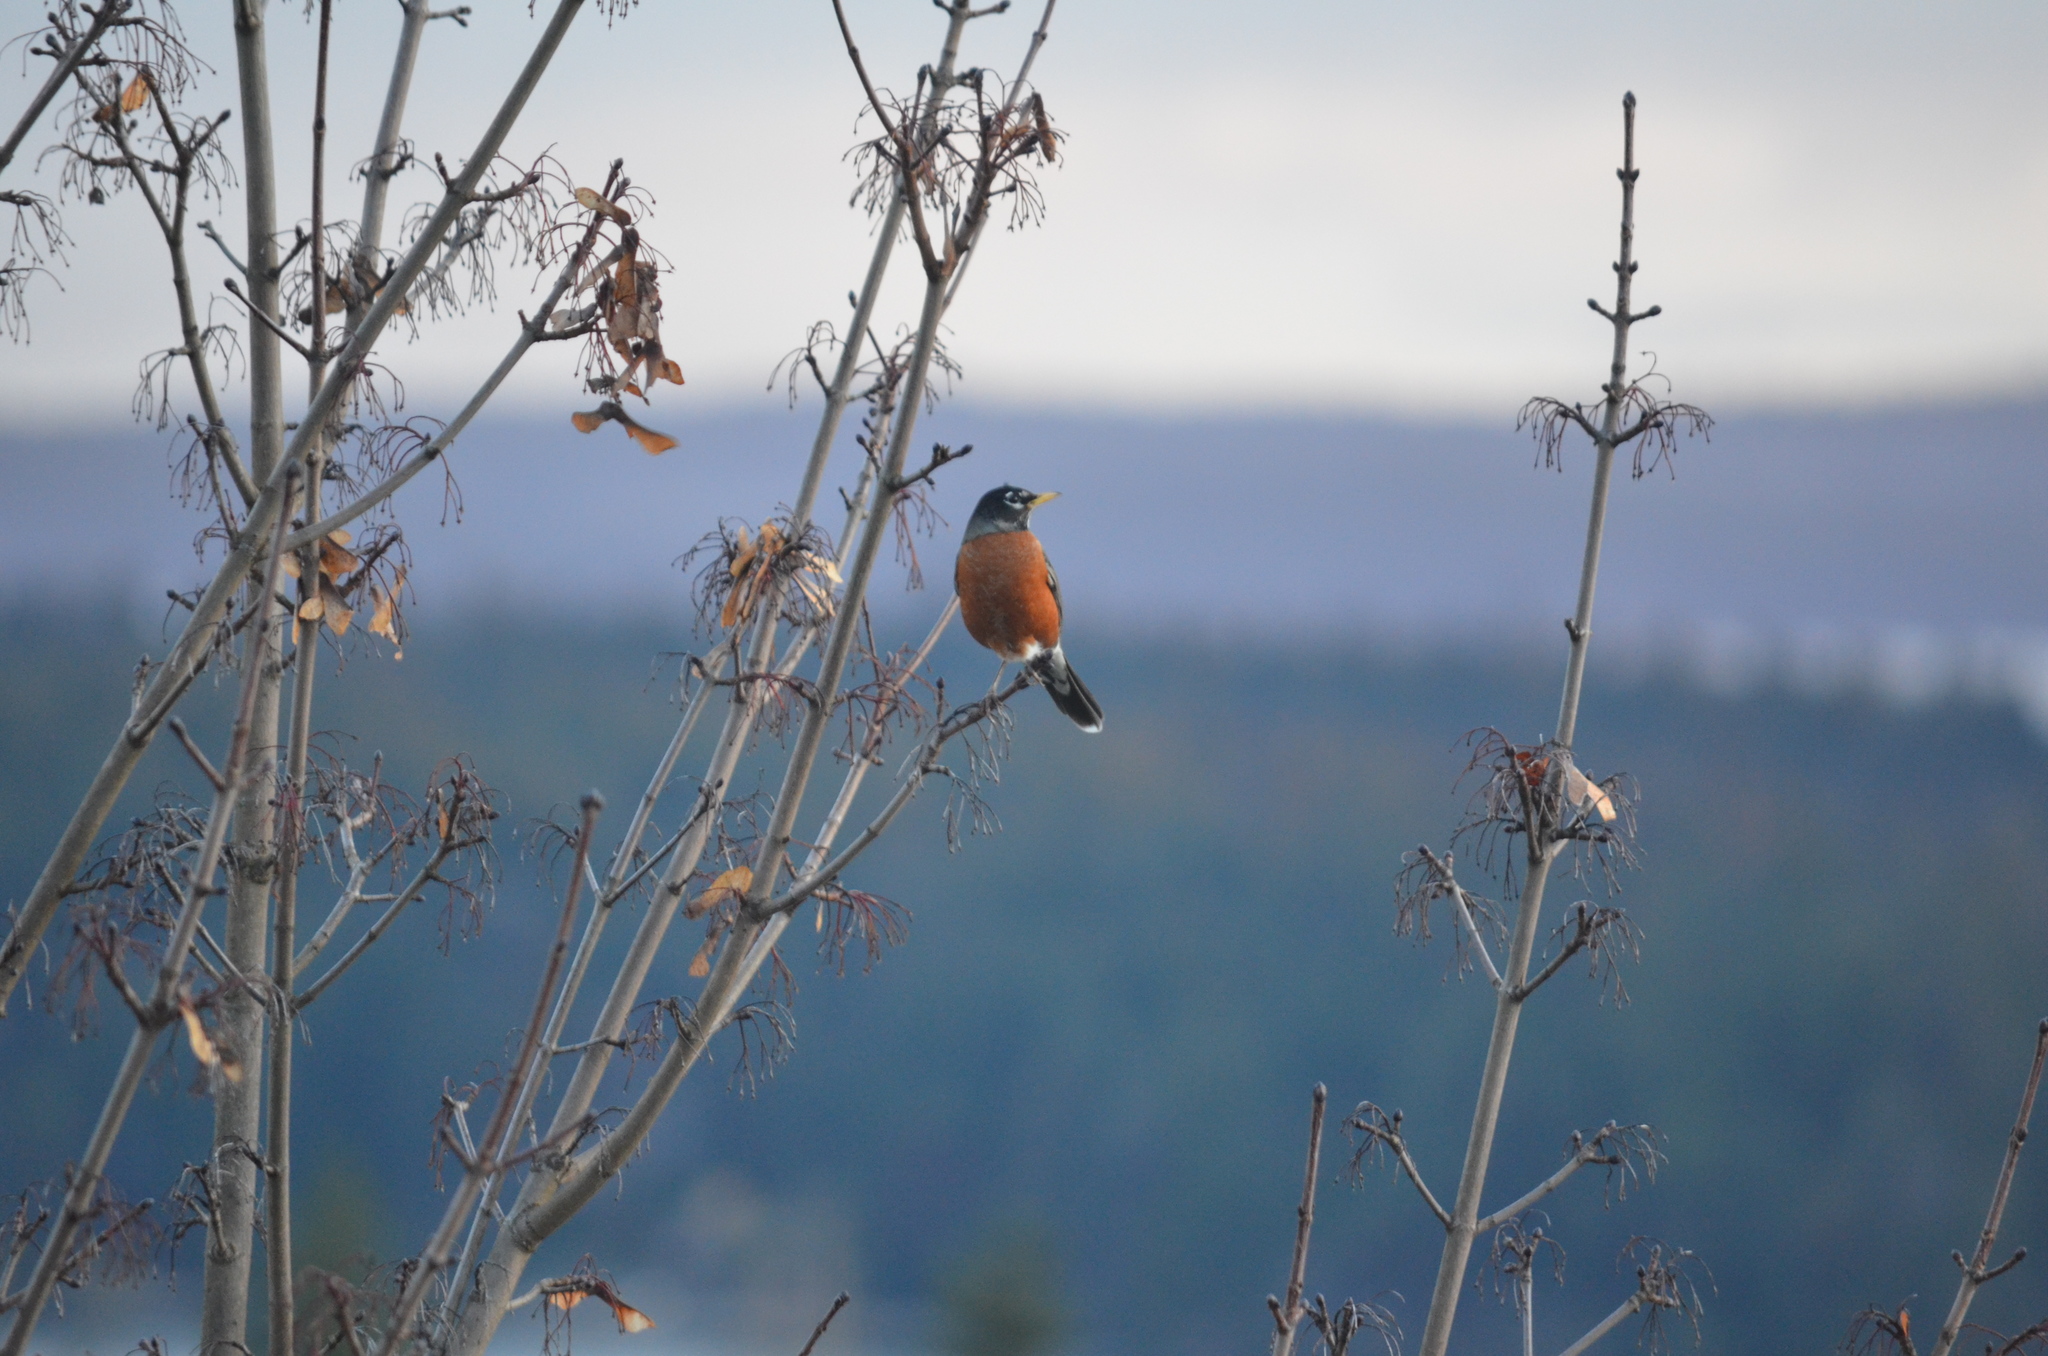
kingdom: Animalia
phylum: Chordata
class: Aves
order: Passeriformes
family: Turdidae
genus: Turdus
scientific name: Turdus migratorius
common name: American robin
